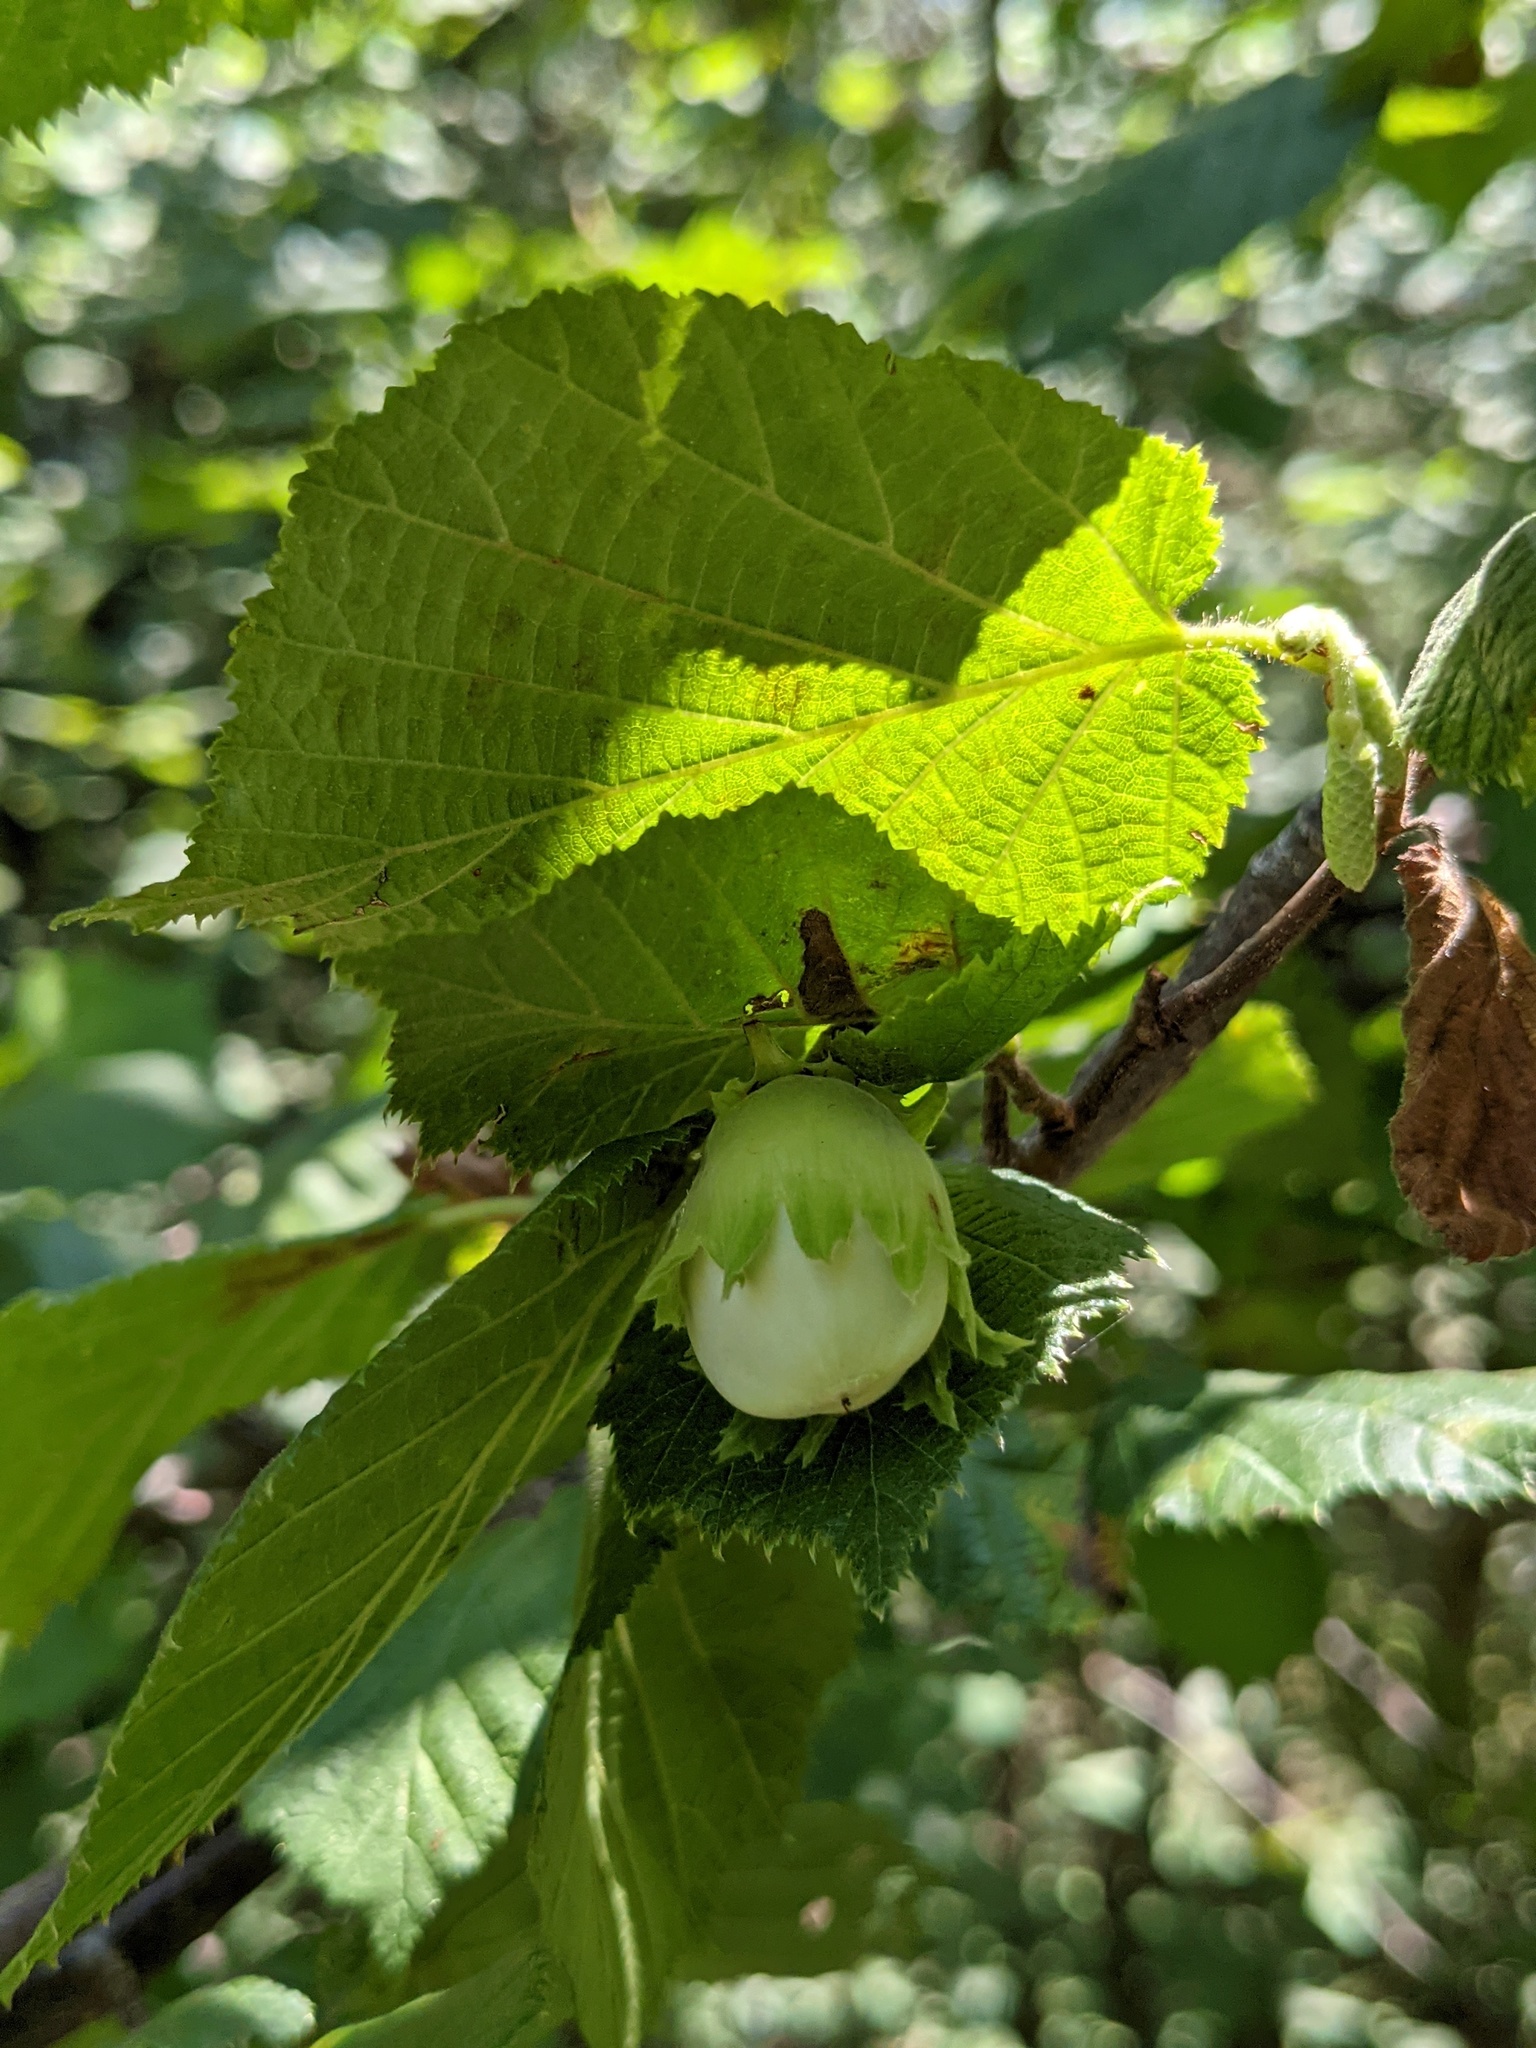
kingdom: Plantae
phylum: Tracheophyta
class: Magnoliopsida
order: Fagales
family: Betulaceae
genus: Corylus
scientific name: Corylus avellana
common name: European hazel
